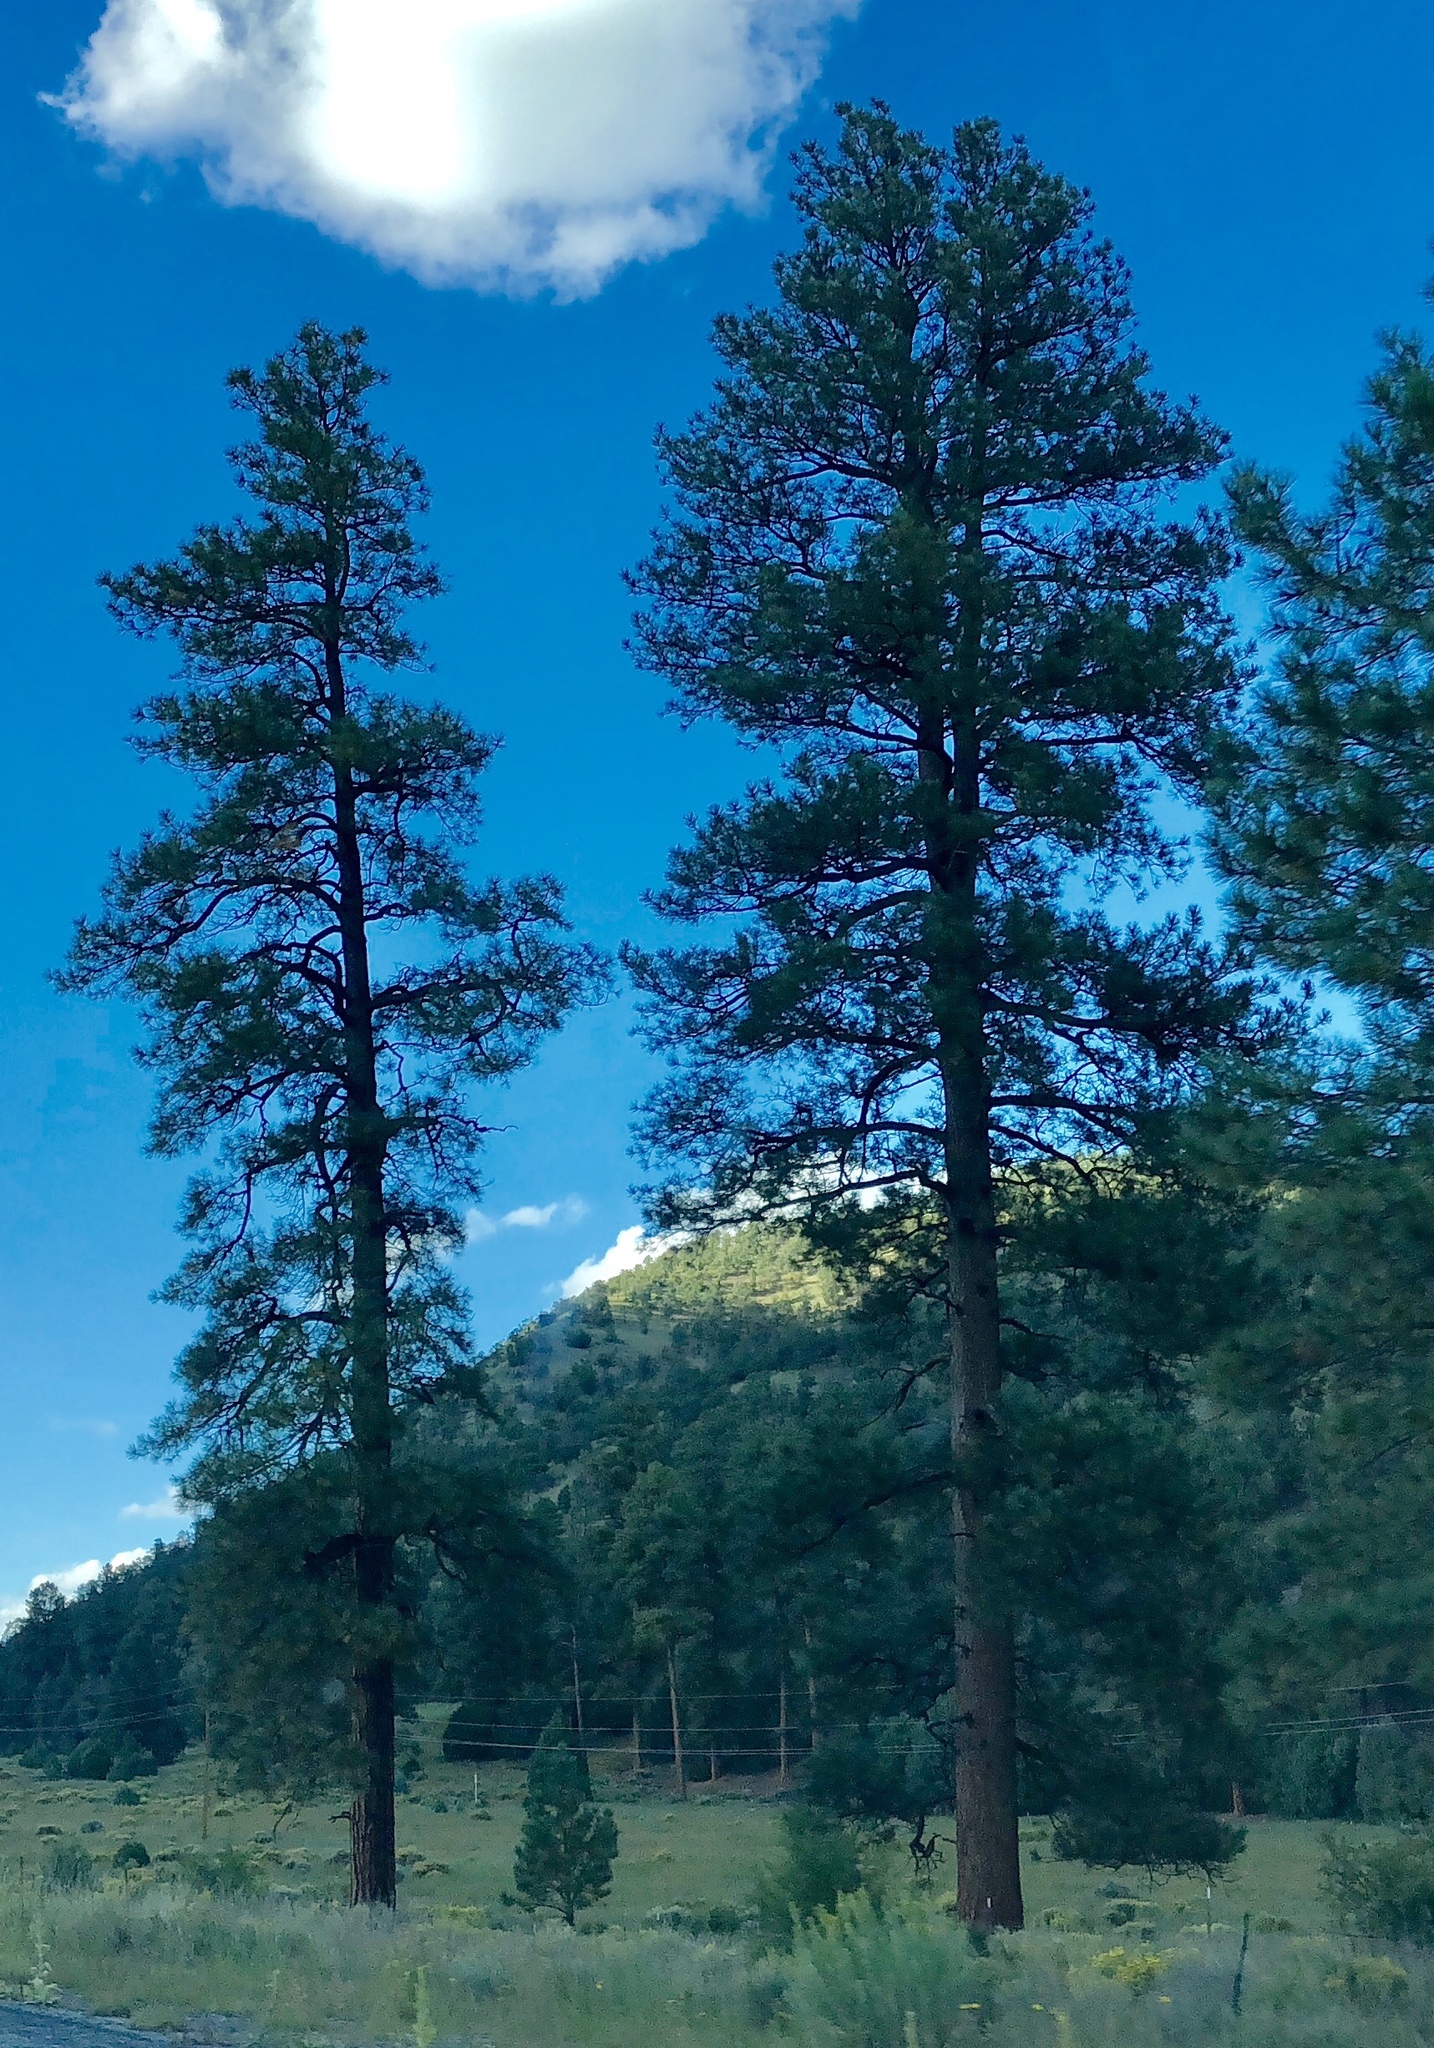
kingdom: Plantae
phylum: Tracheophyta
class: Pinopsida
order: Pinales
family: Pinaceae
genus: Pinus
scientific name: Pinus ponderosa
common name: Western yellow-pine
